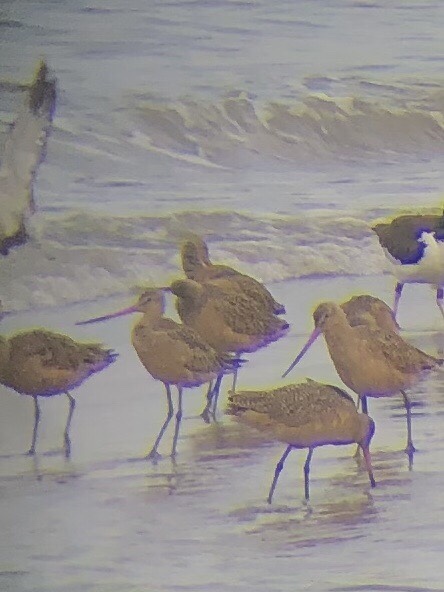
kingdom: Animalia
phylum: Chordata
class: Aves
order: Charadriiformes
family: Scolopacidae
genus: Limosa
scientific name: Limosa fedoa
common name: Marbled godwit
